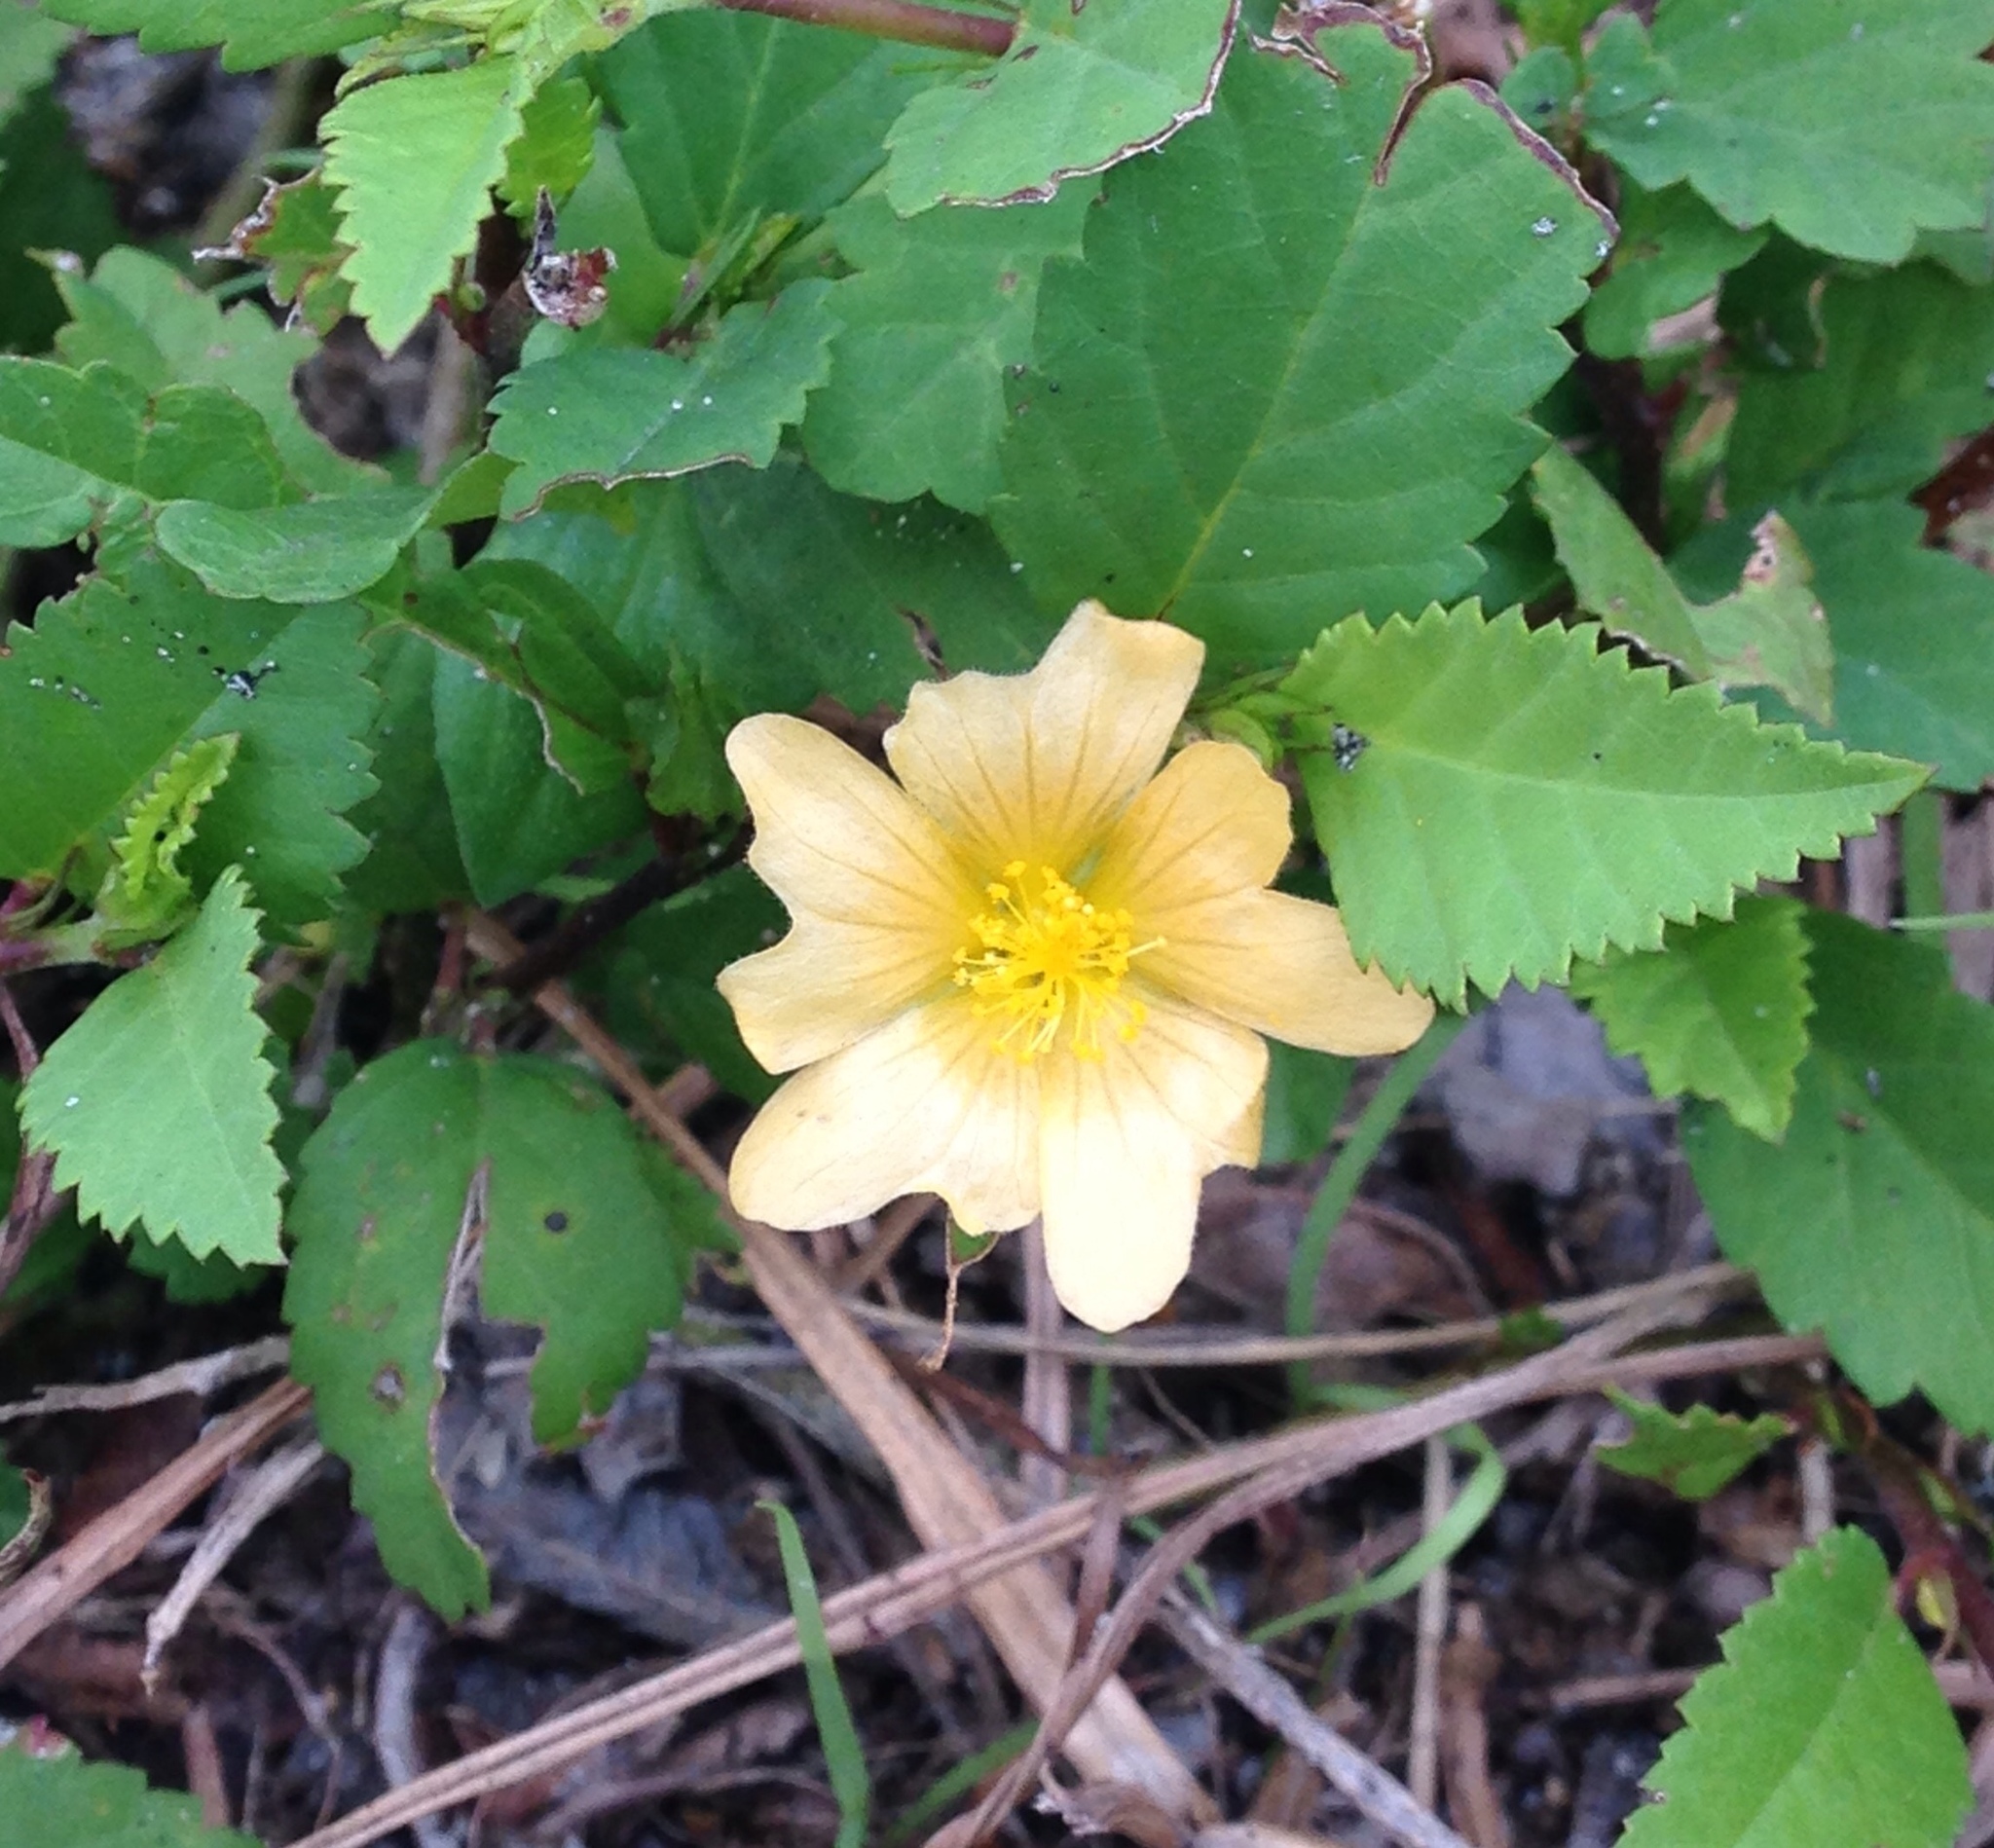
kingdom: Plantae
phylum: Tracheophyta
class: Magnoliopsida
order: Malvales
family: Malvaceae
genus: Sida
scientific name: Sida ulmifolia
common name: Broom weed
